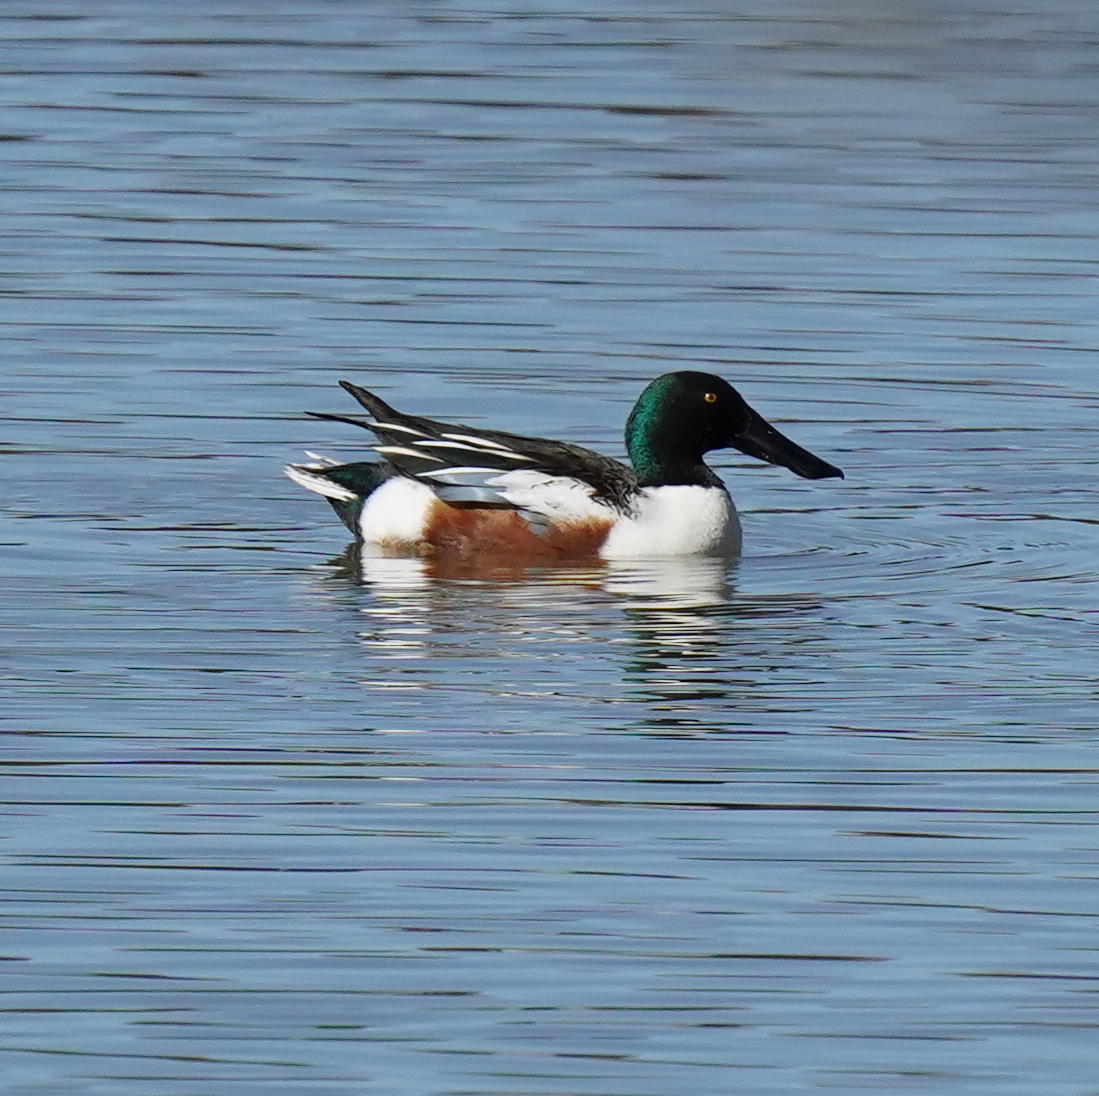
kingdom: Animalia
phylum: Chordata
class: Aves
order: Anseriformes
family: Anatidae
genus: Spatula
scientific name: Spatula clypeata
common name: Northern shoveler
